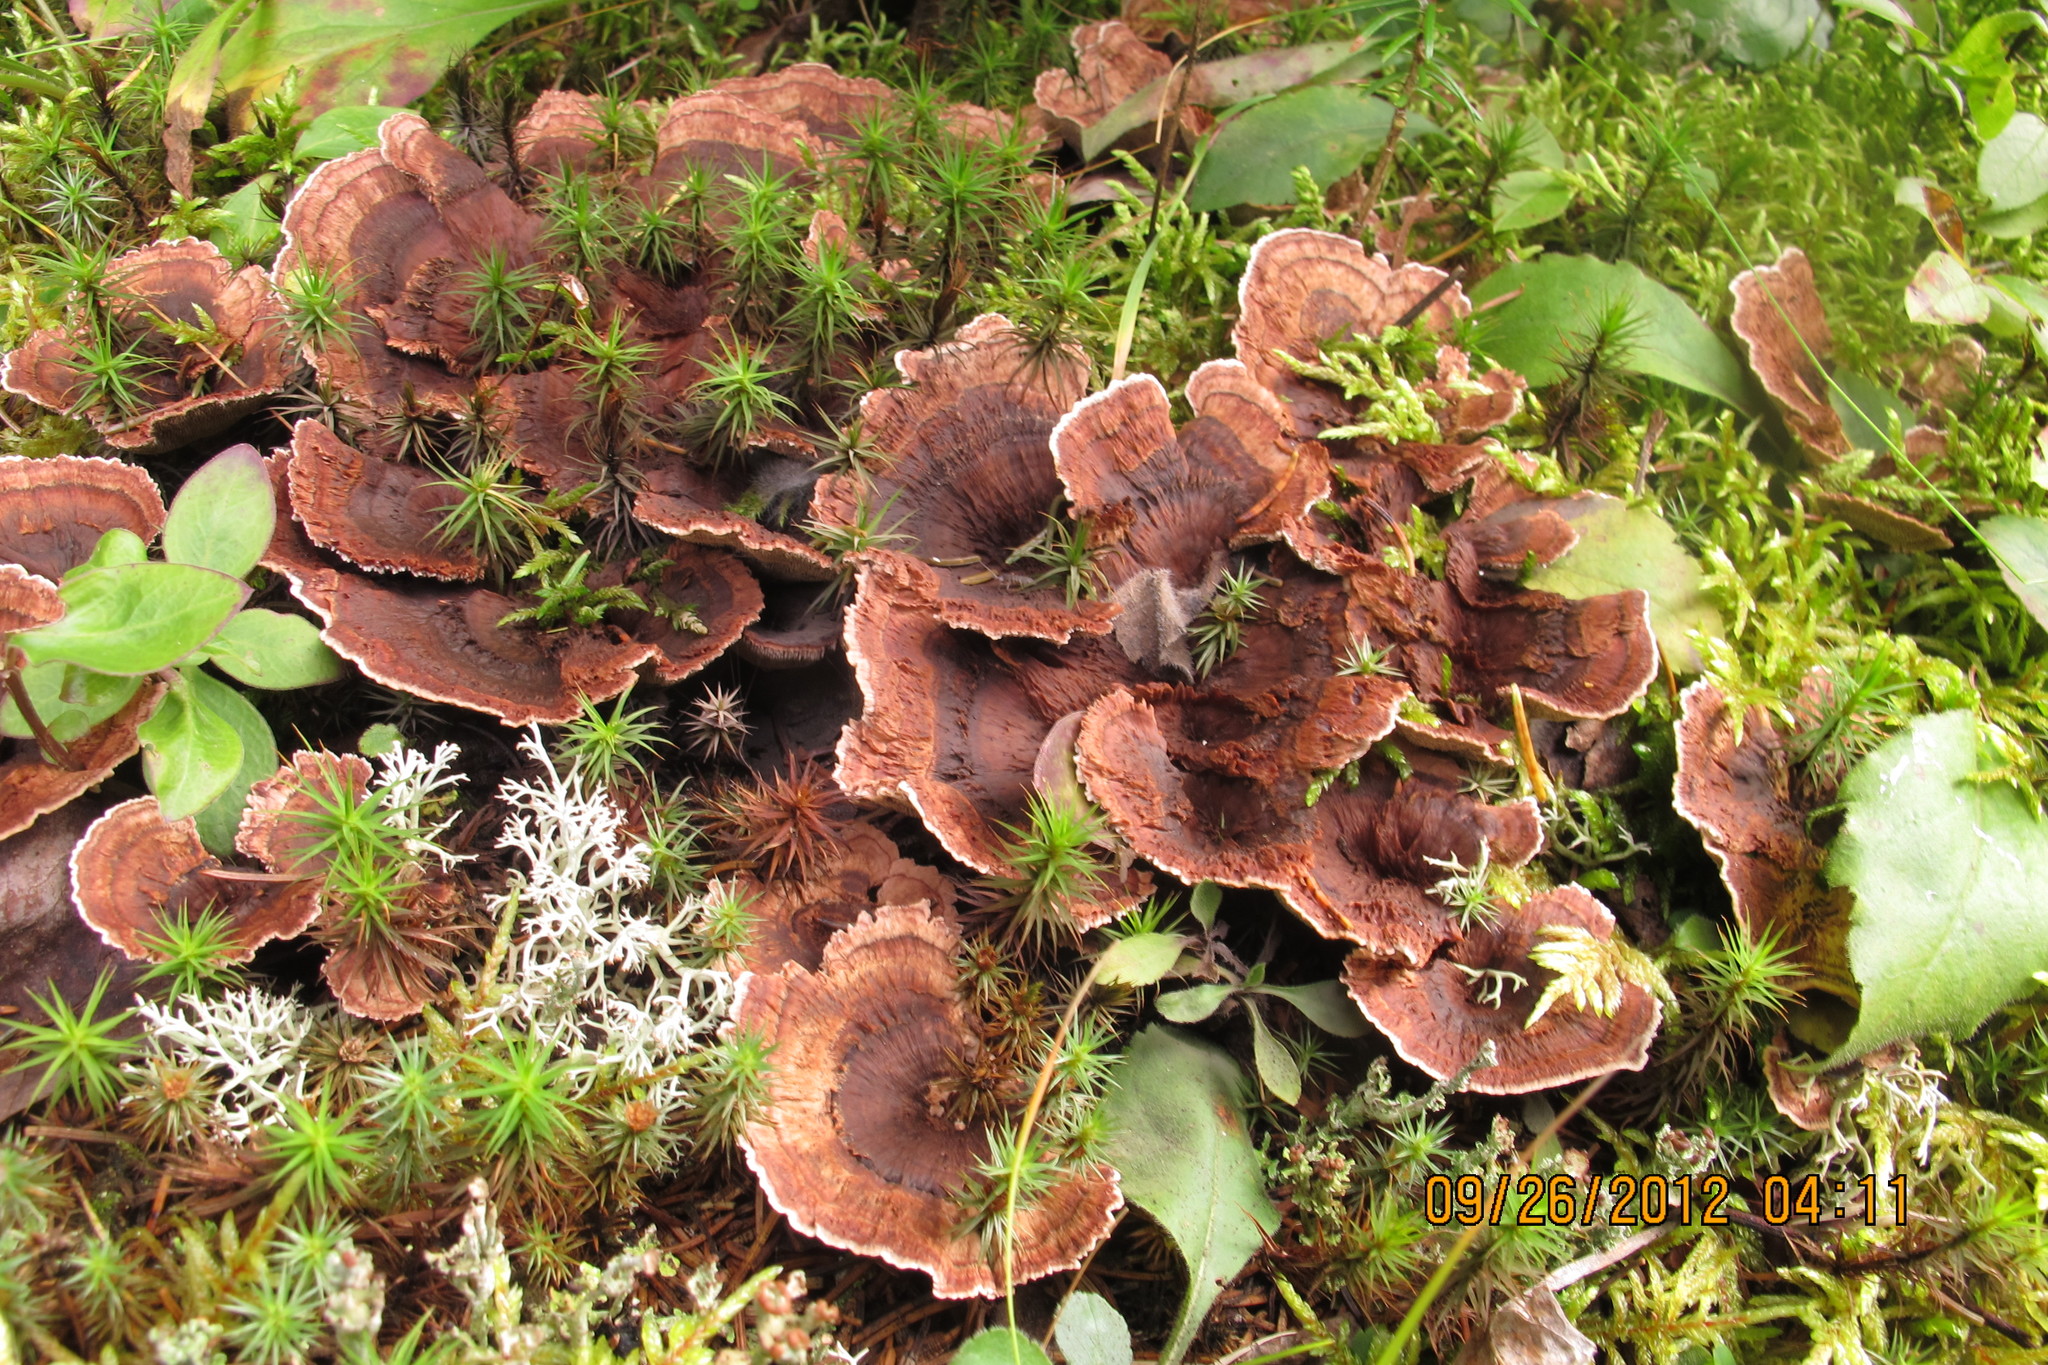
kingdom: Fungi
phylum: Basidiomycota
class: Agaricomycetes
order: Thelephorales
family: Bankeraceae
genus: Hydnellum
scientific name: Hydnellum subzonatum
